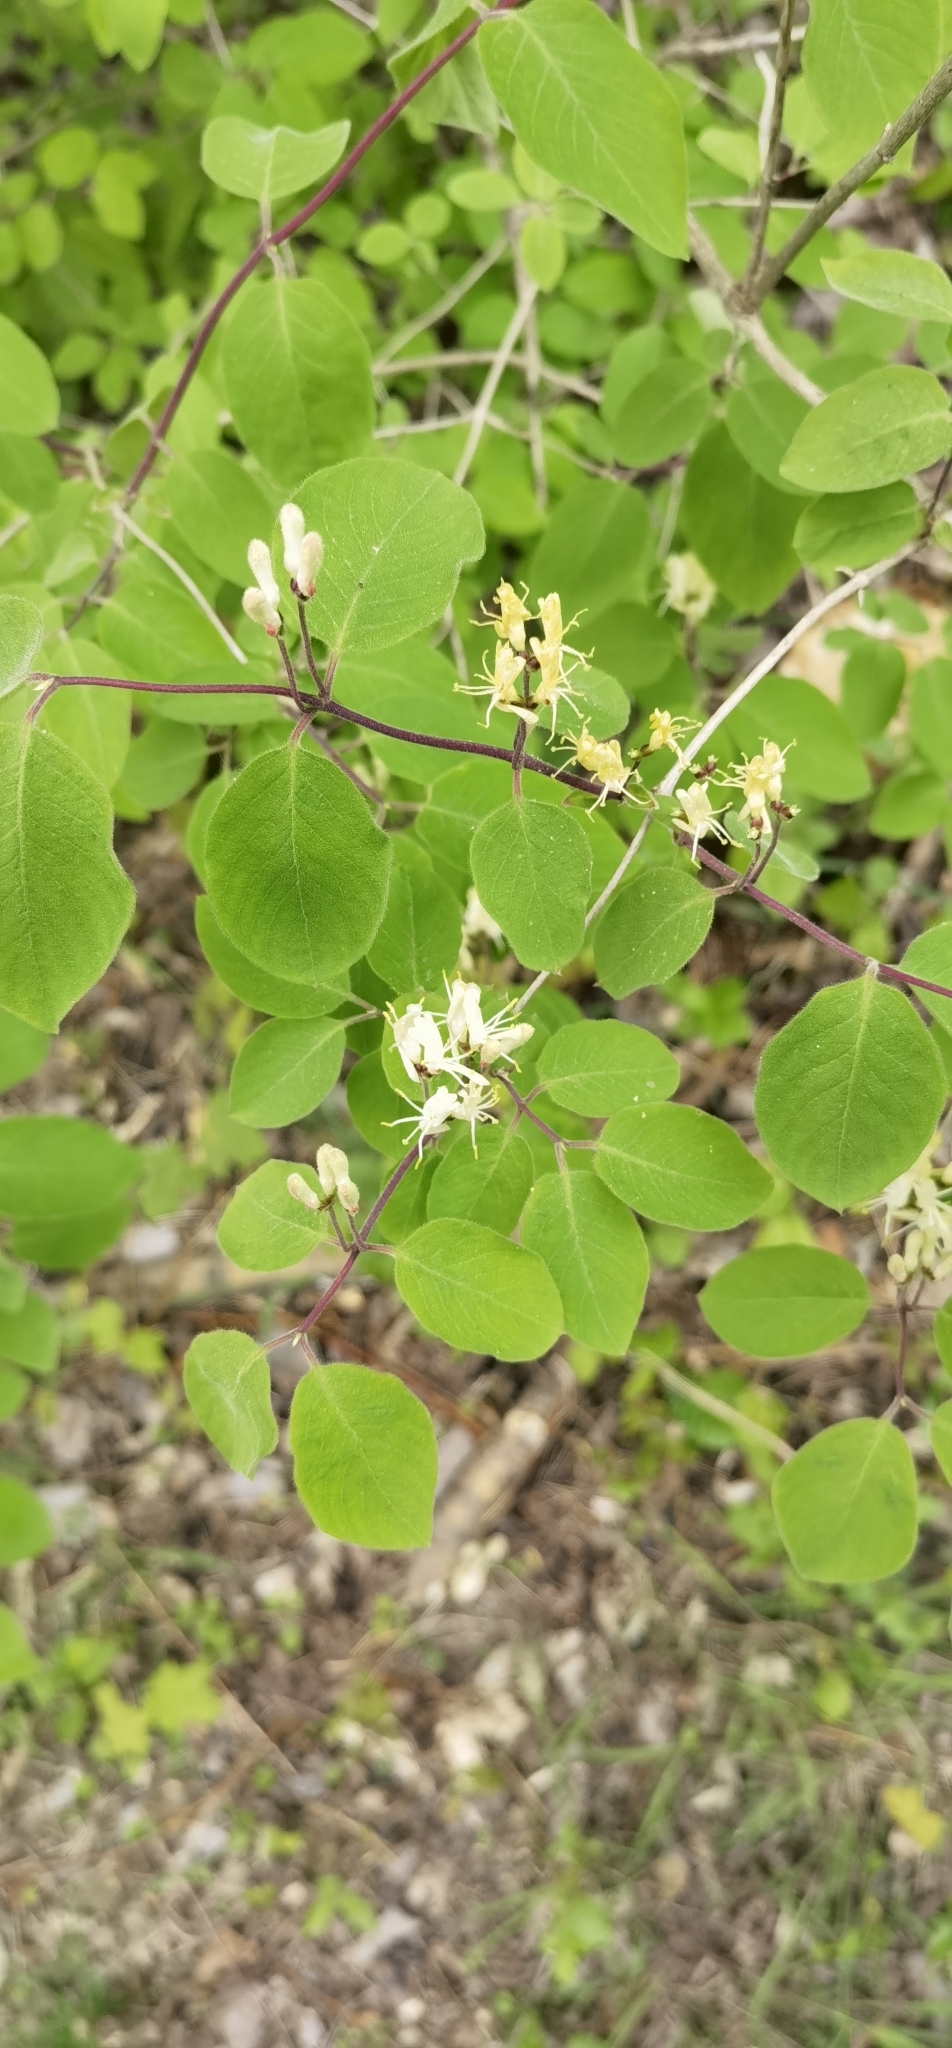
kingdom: Plantae
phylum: Tracheophyta
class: Magnoliopsida
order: Dipsacales
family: Caprifoliaceae
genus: Lonicera
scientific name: Lonicera xylosteum
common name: Fly honeysuckle
